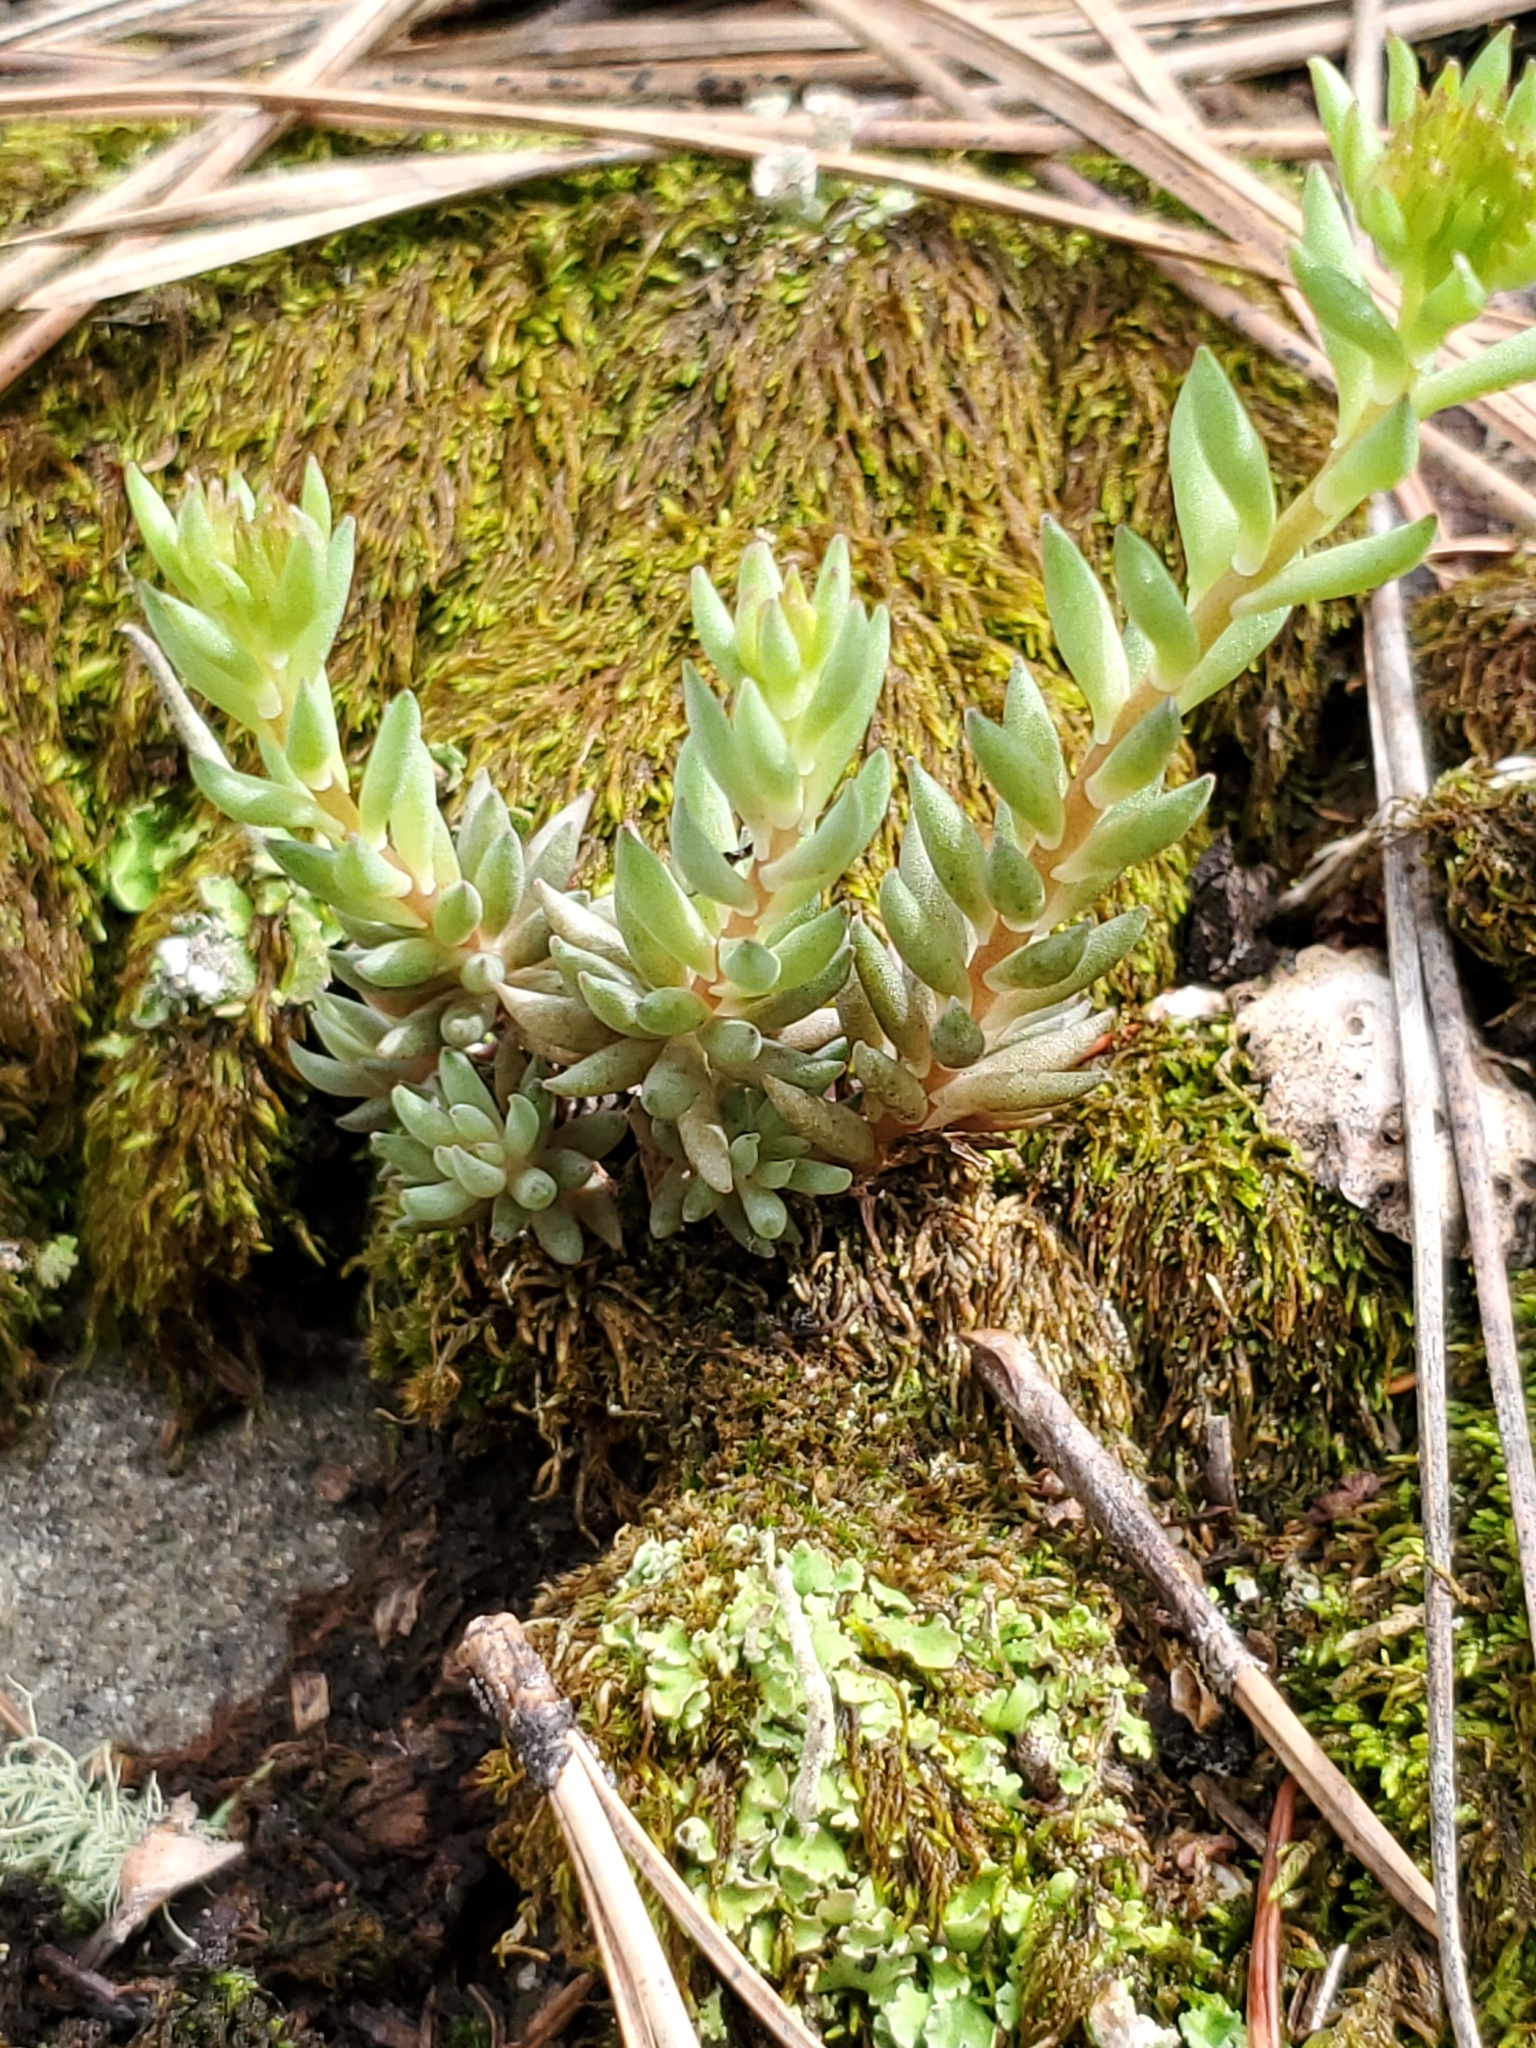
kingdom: Plantae
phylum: Tracheophyta
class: Magnoliopsida
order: Saxifragales
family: Crassulaceae
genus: Sedum
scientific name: Sedum lanceolatum
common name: Common stonecrop
